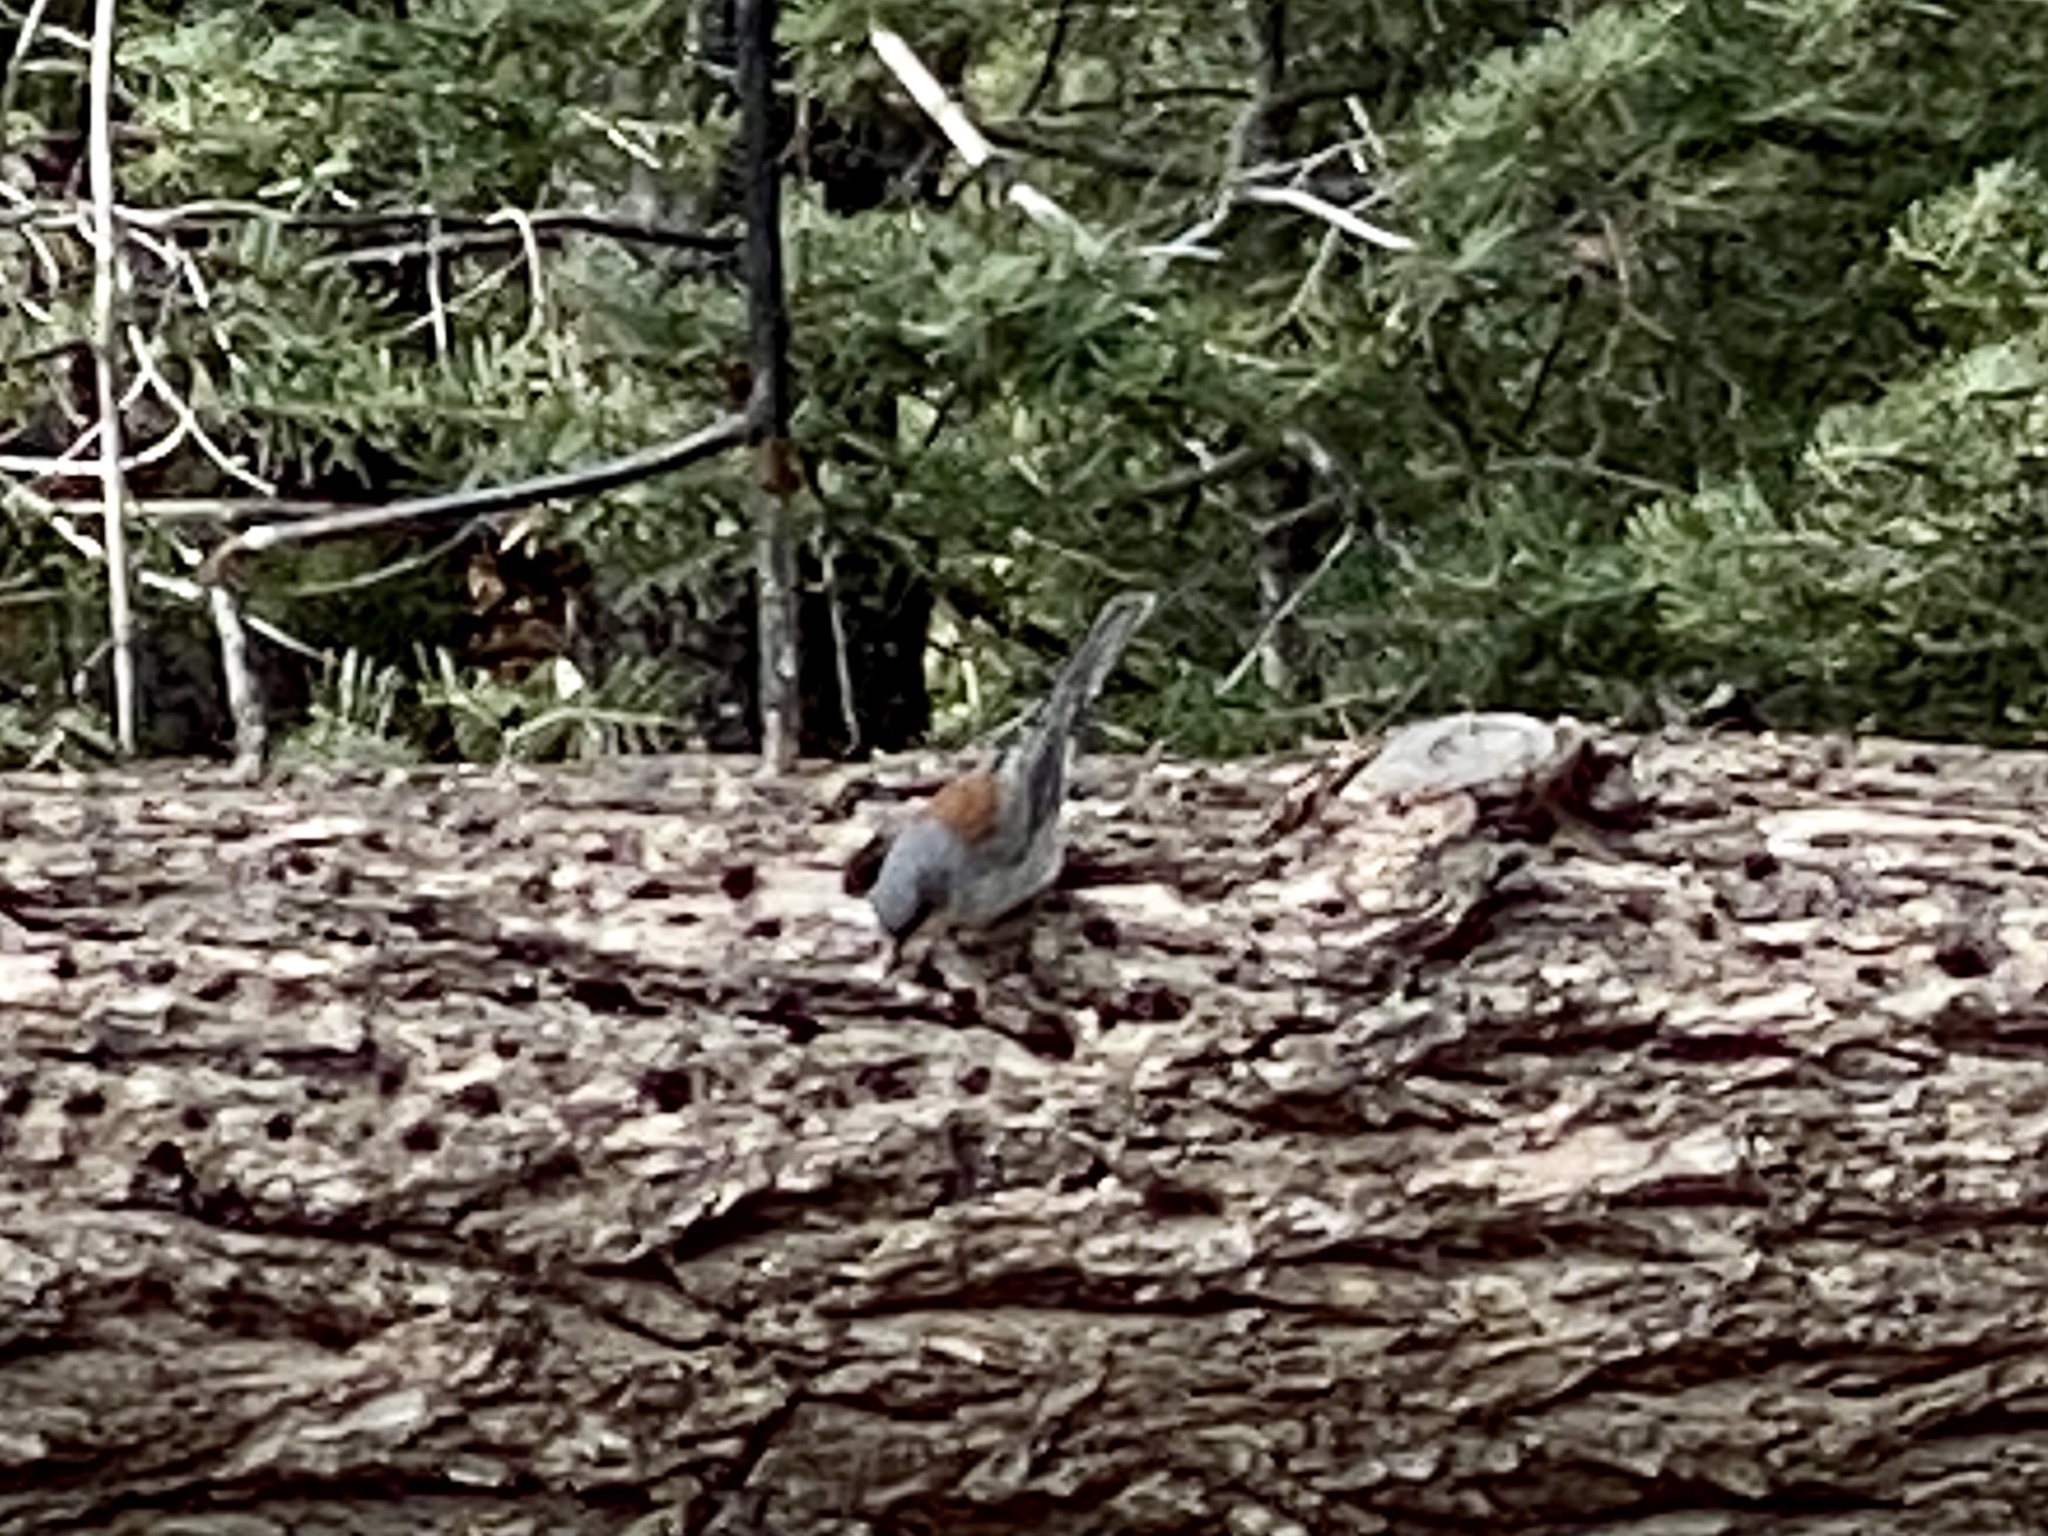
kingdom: Animalia
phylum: Chordata
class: Aves
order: Passeriformes
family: Passerellidae
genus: Junco
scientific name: Junco hyemalis
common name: Dark-eyed junco
